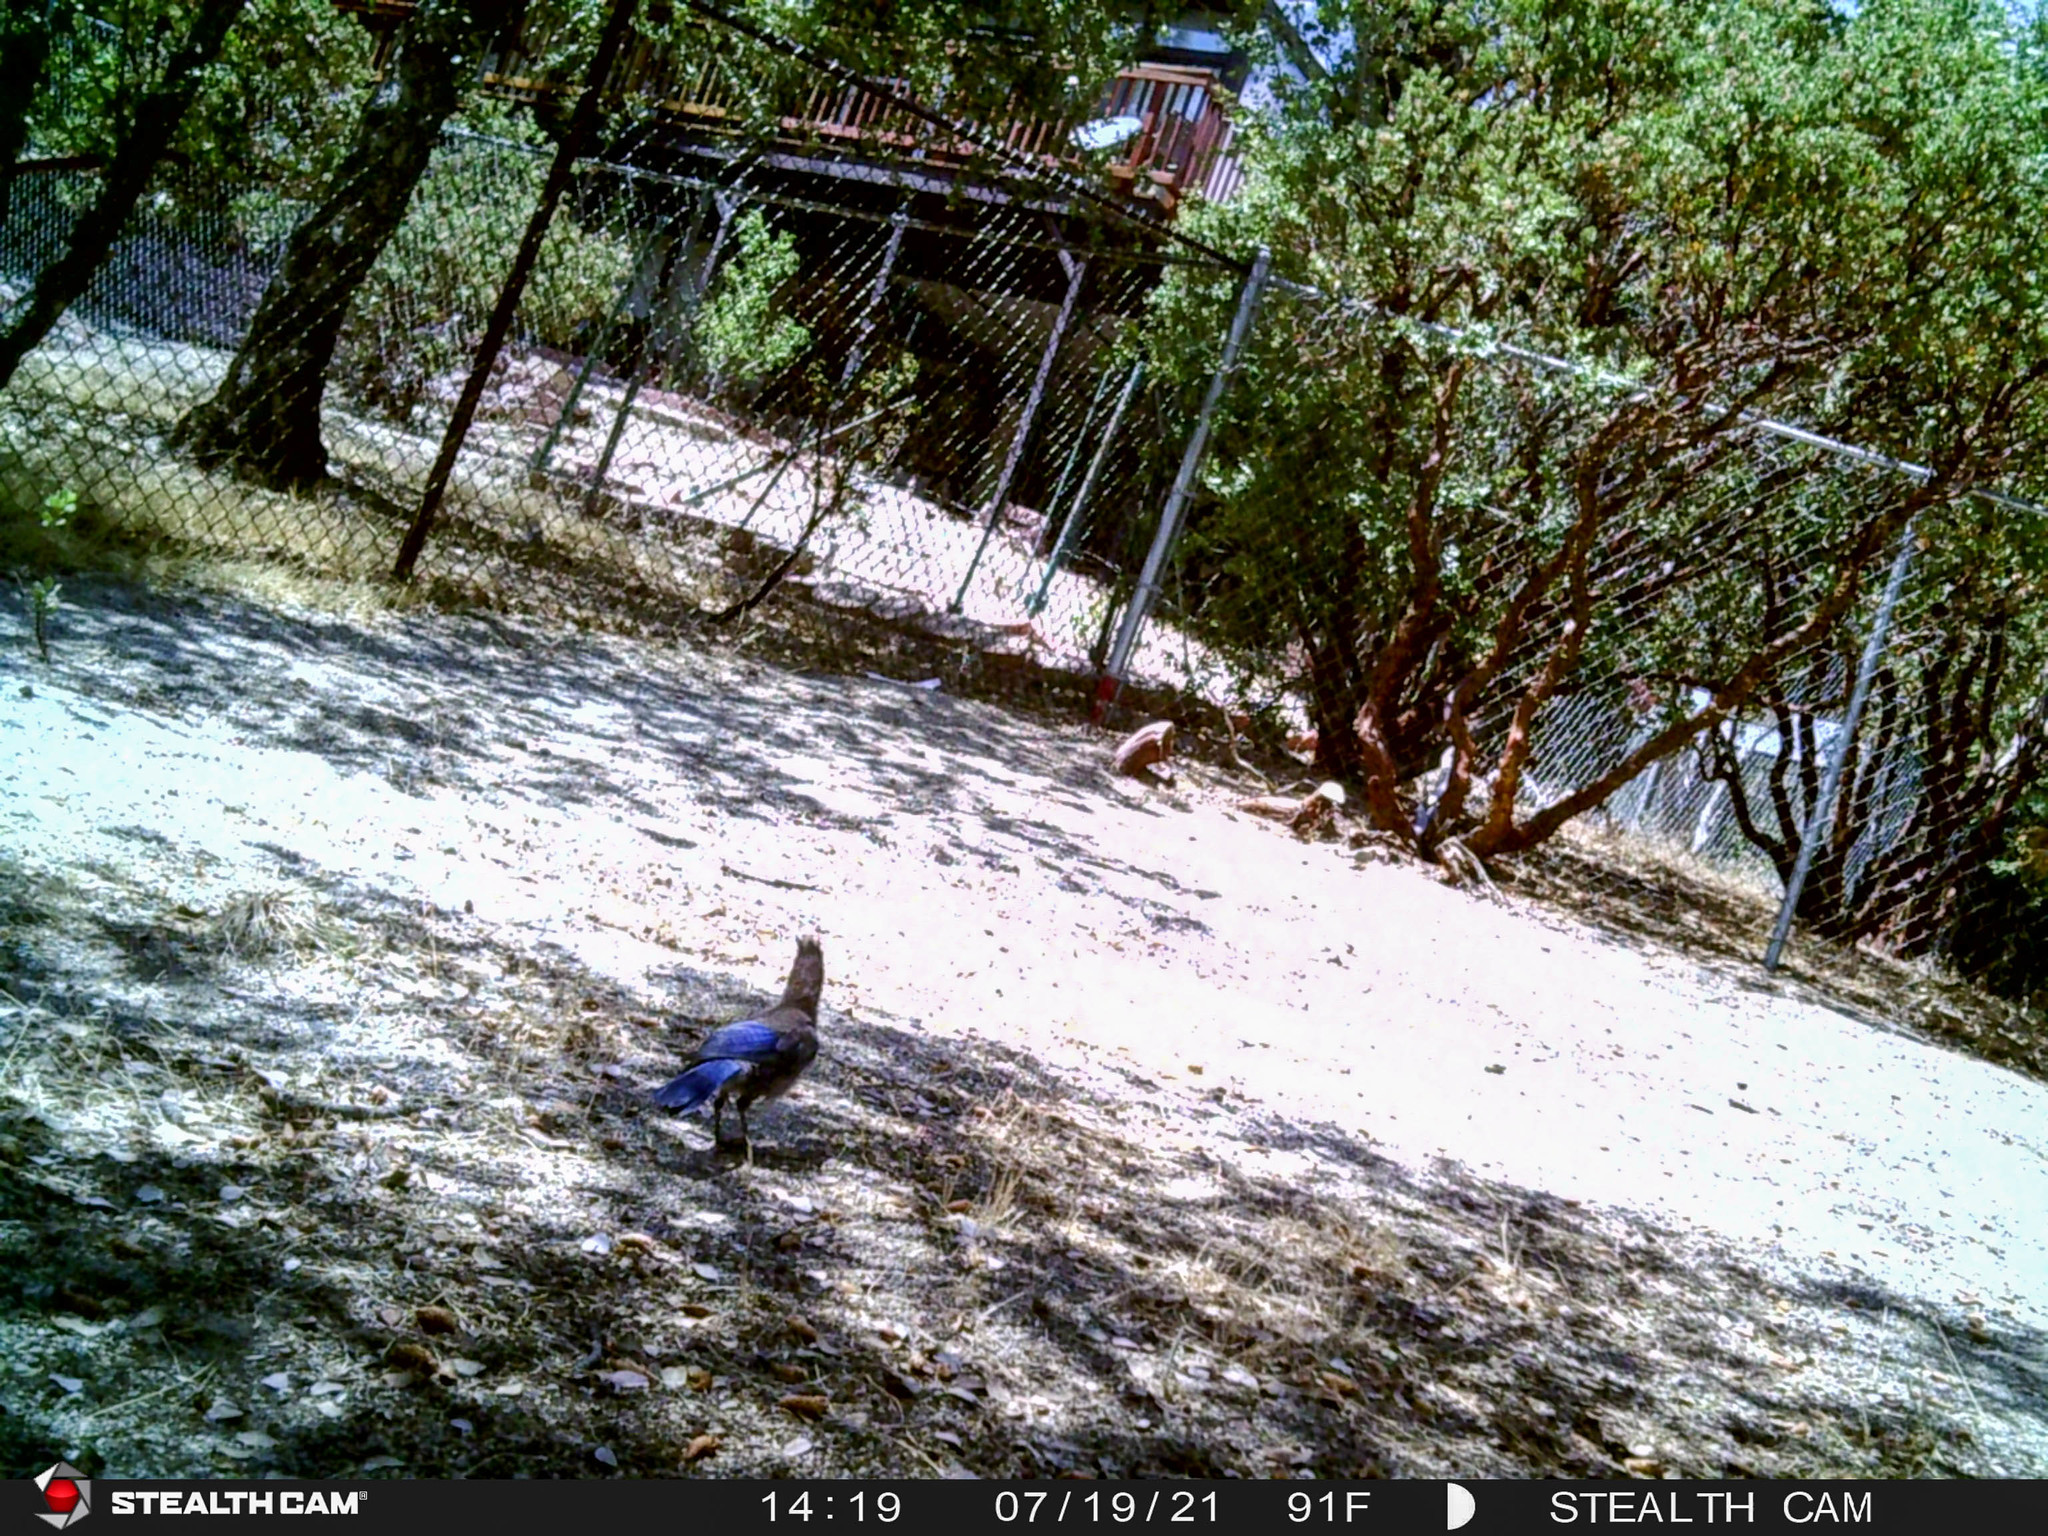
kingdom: Animalia
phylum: Chordata
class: Aves
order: Passeriformes
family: Corvidae
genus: Cyanocitta
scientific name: Cyanocitta stelleri
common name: Steller's jay
